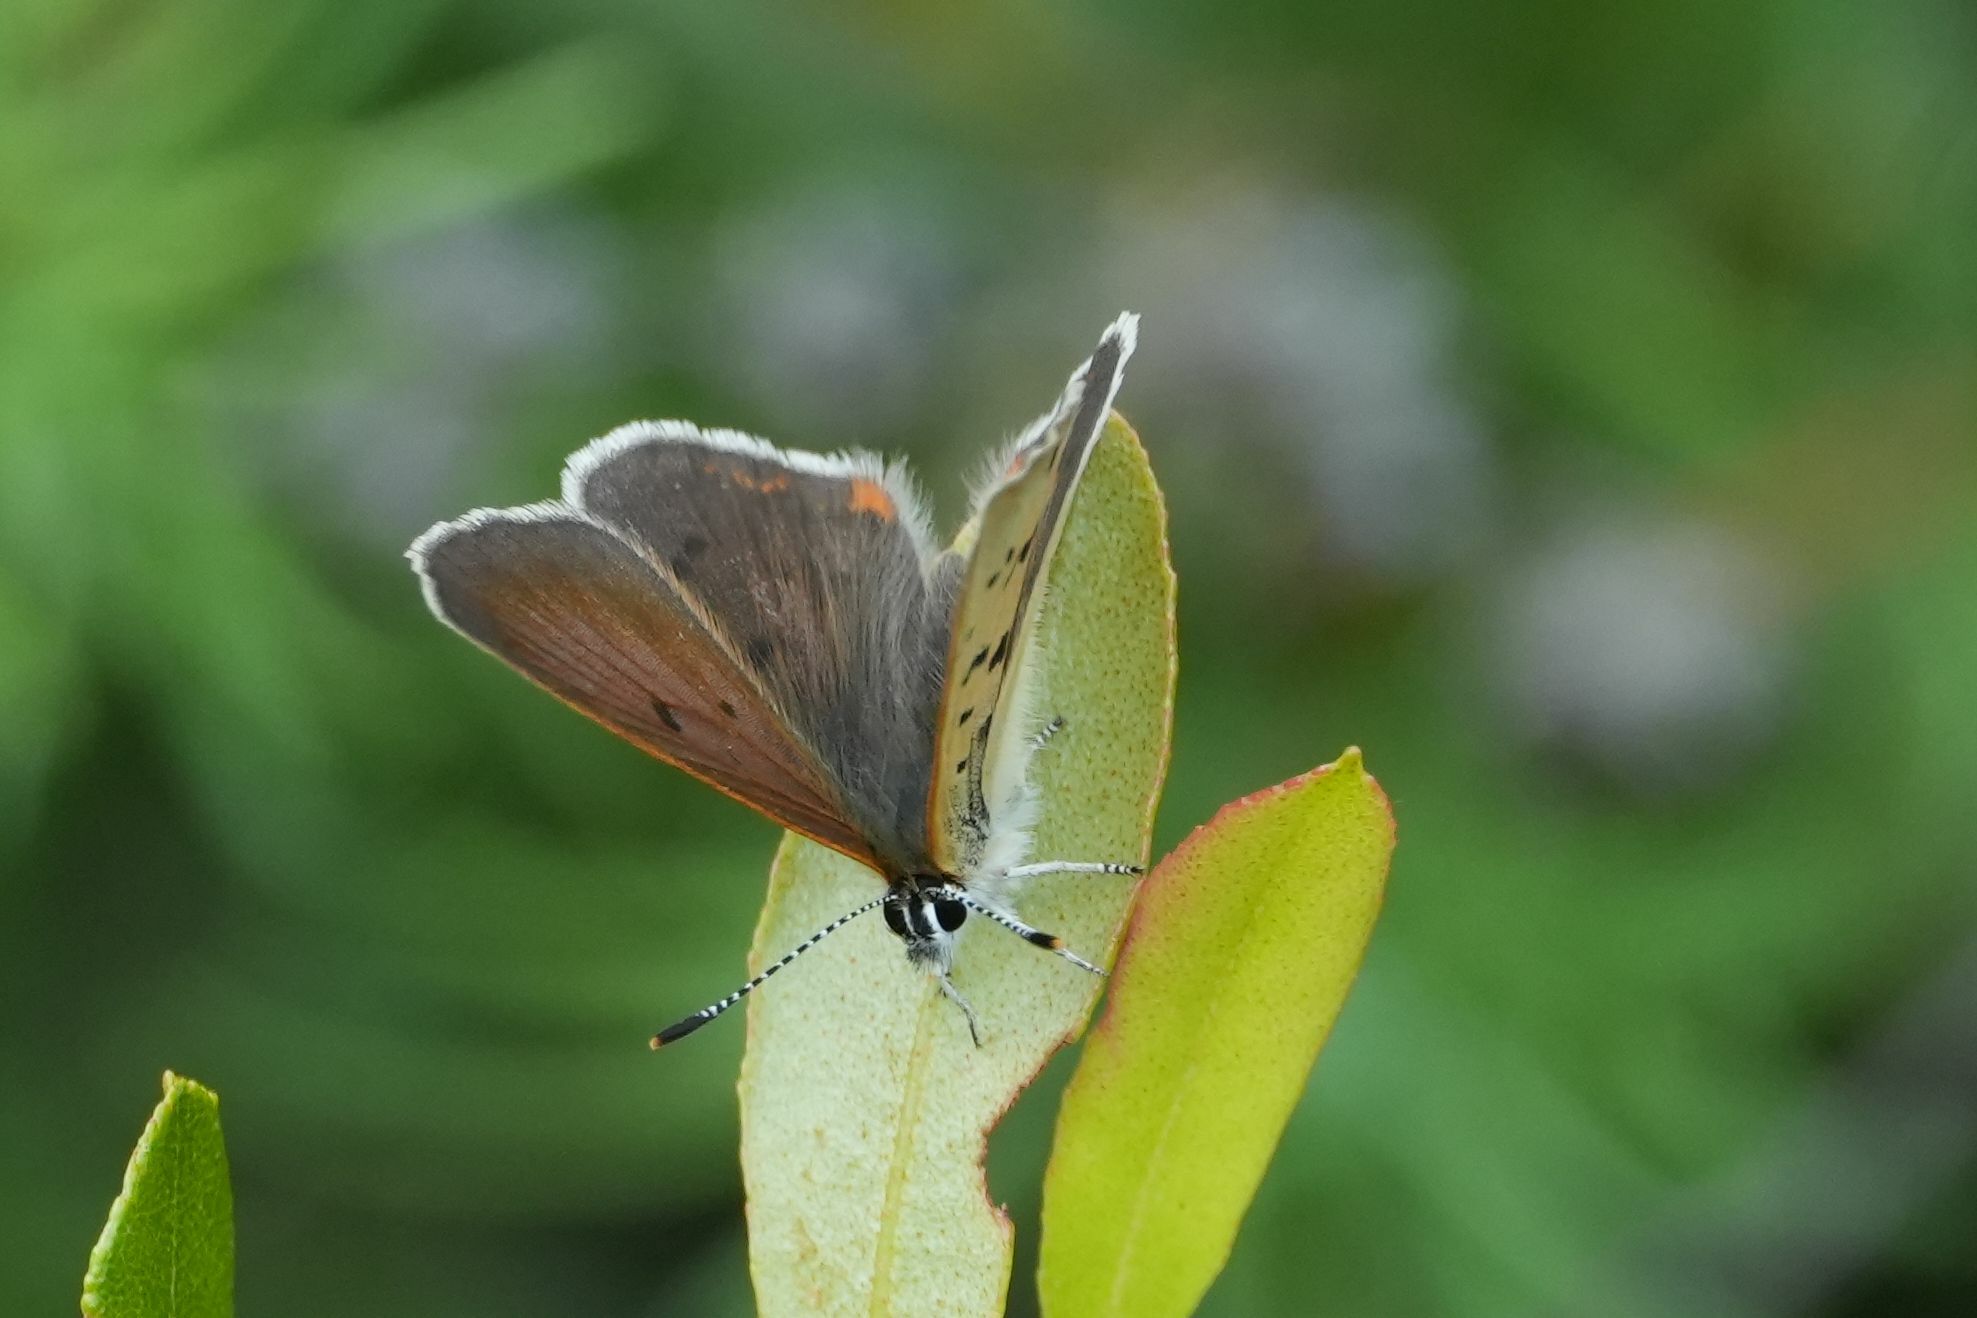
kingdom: Animalia
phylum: Arthropoda
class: Insecta
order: Lepidoptera
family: Lycaenidae
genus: Tharsalea
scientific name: Tharsalea epixanthe
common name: Bog copper
